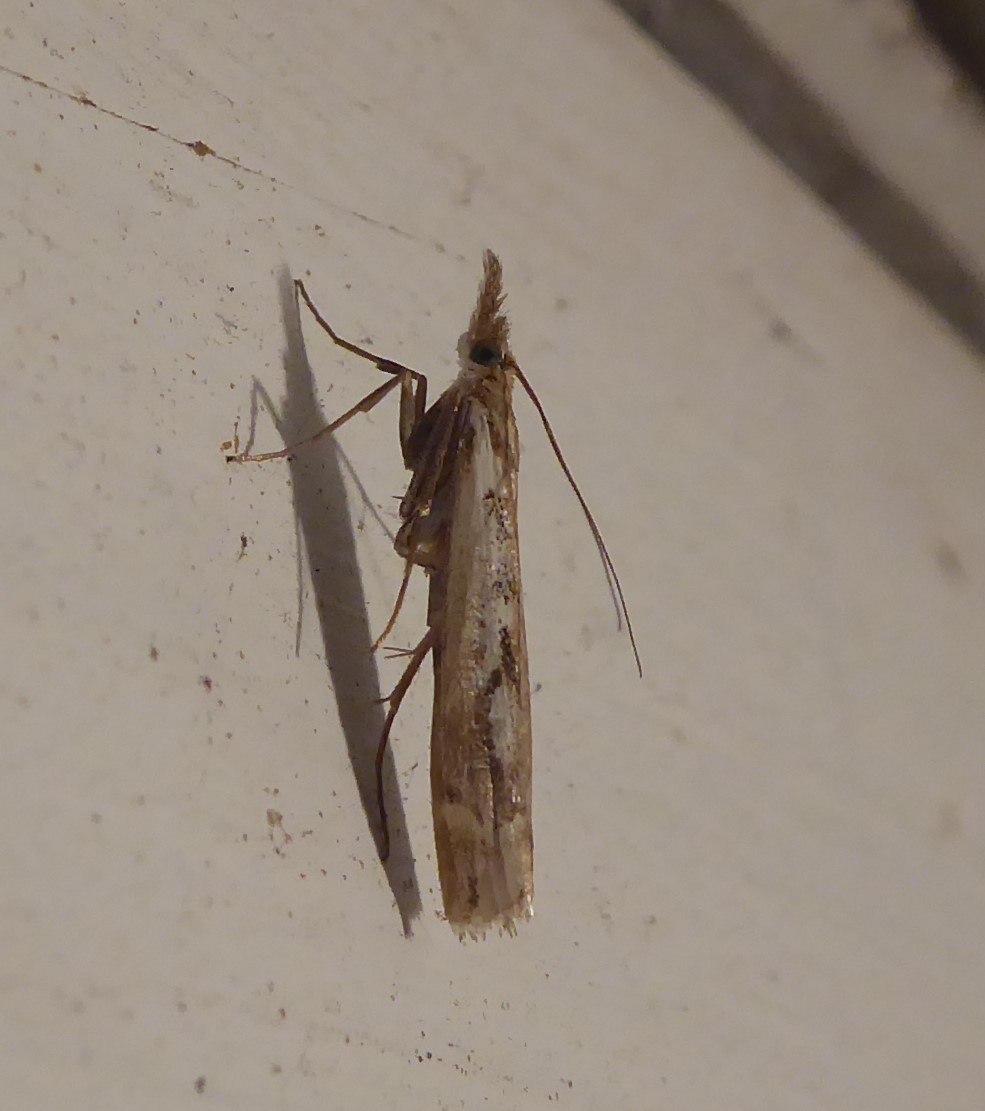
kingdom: Animalia
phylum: Arthropoda
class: Insecta
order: Lepidoptera
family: Crambidae
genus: Orocrambus
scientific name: Orocrambus vulgaris
